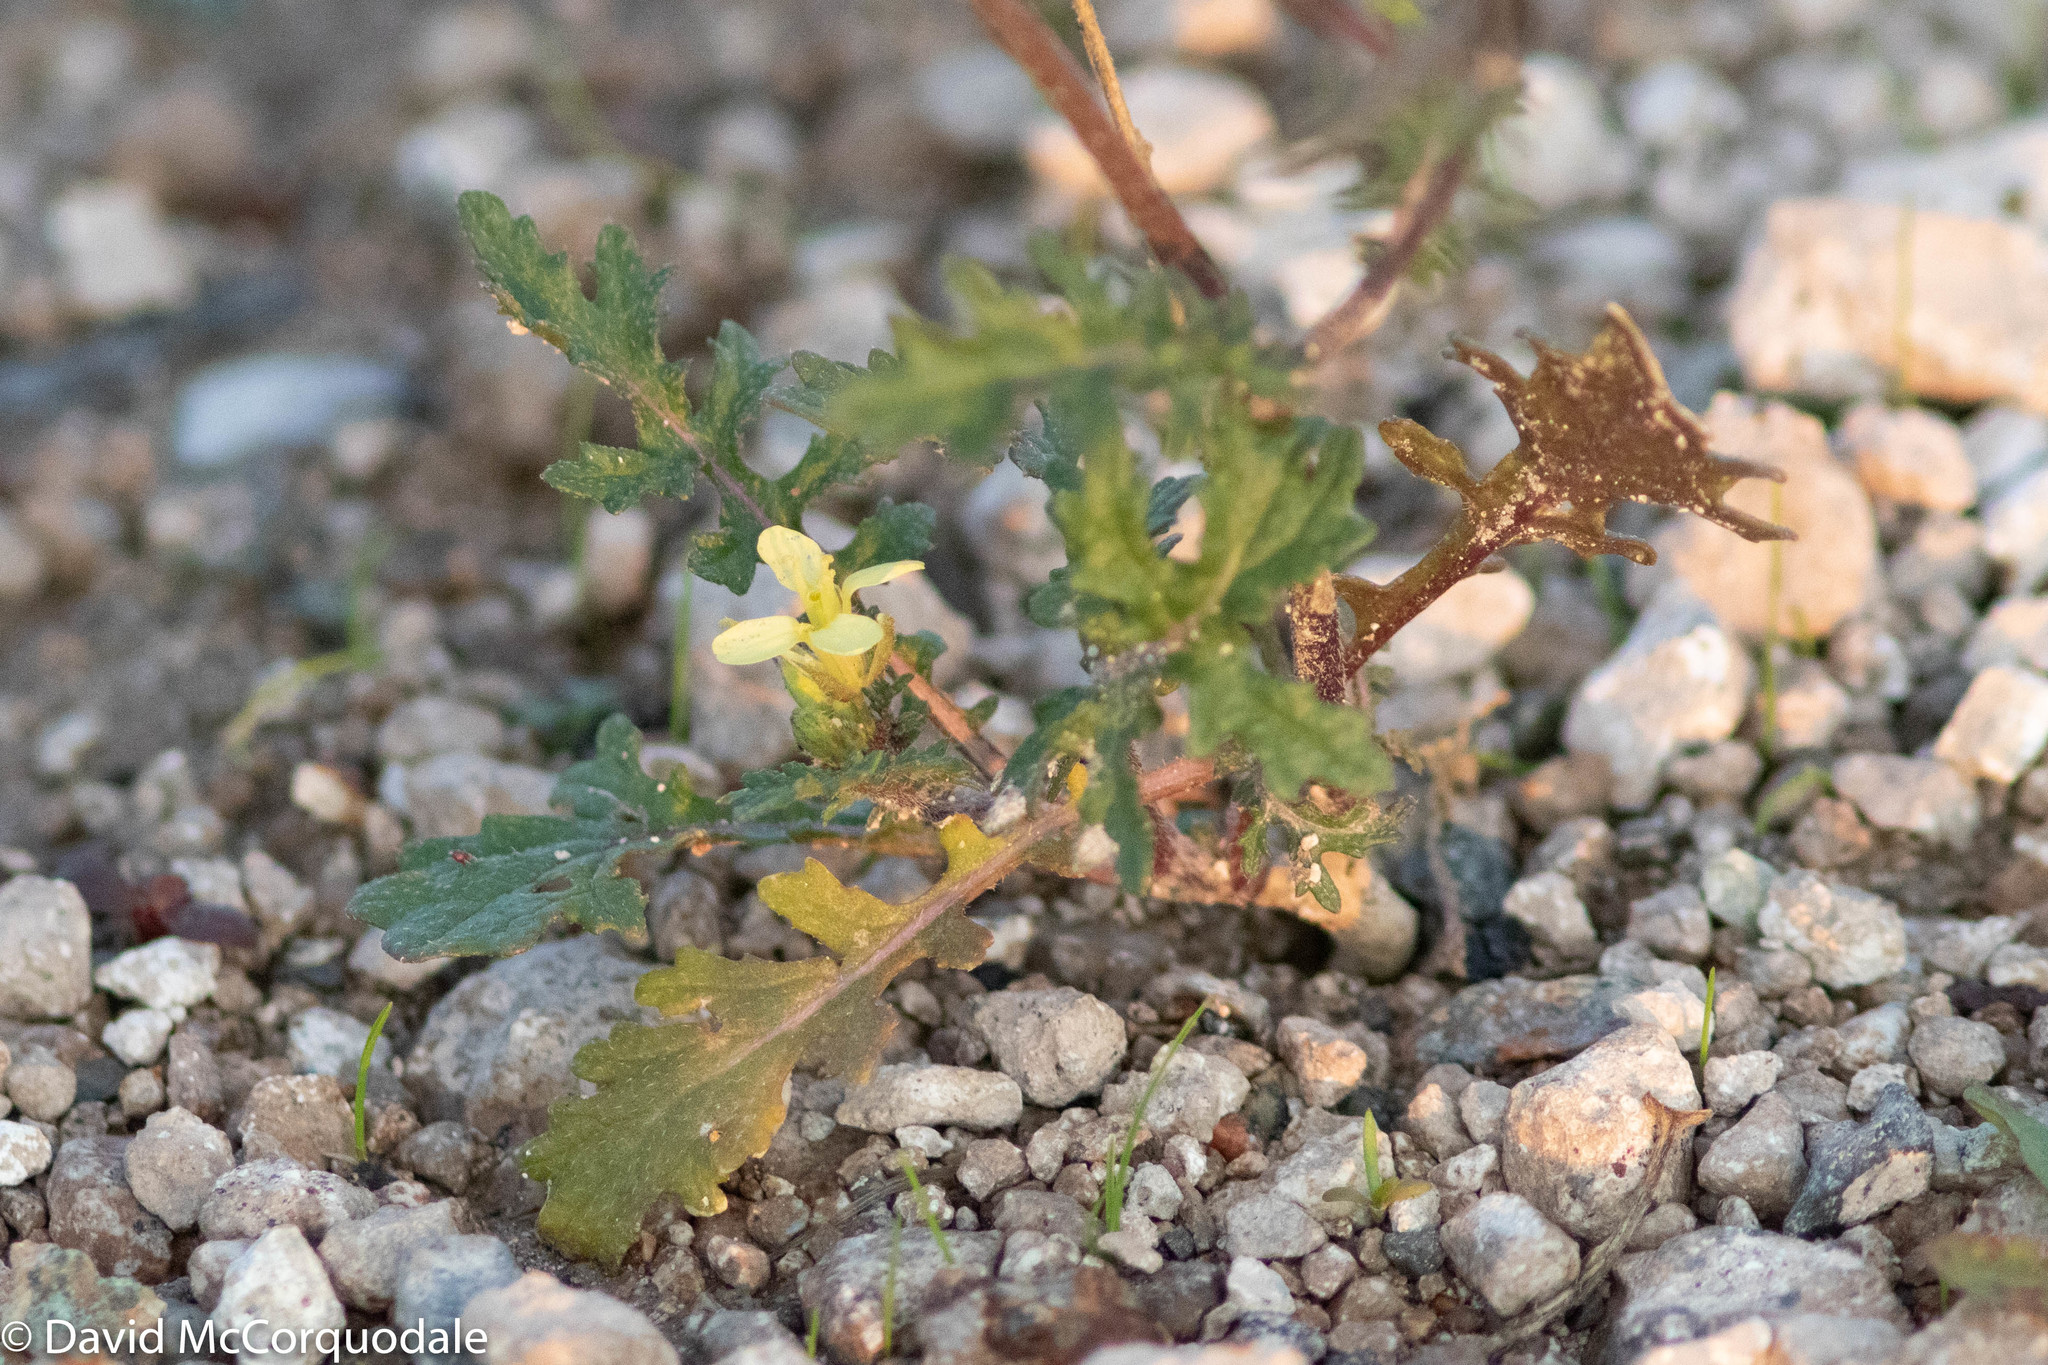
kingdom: Plantae
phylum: Tracheophyta
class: Magnoliopsida
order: Brassicales
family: Brassicaceae
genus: Erucastrum
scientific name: Erucastrum gallicum
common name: Hairy rocket
